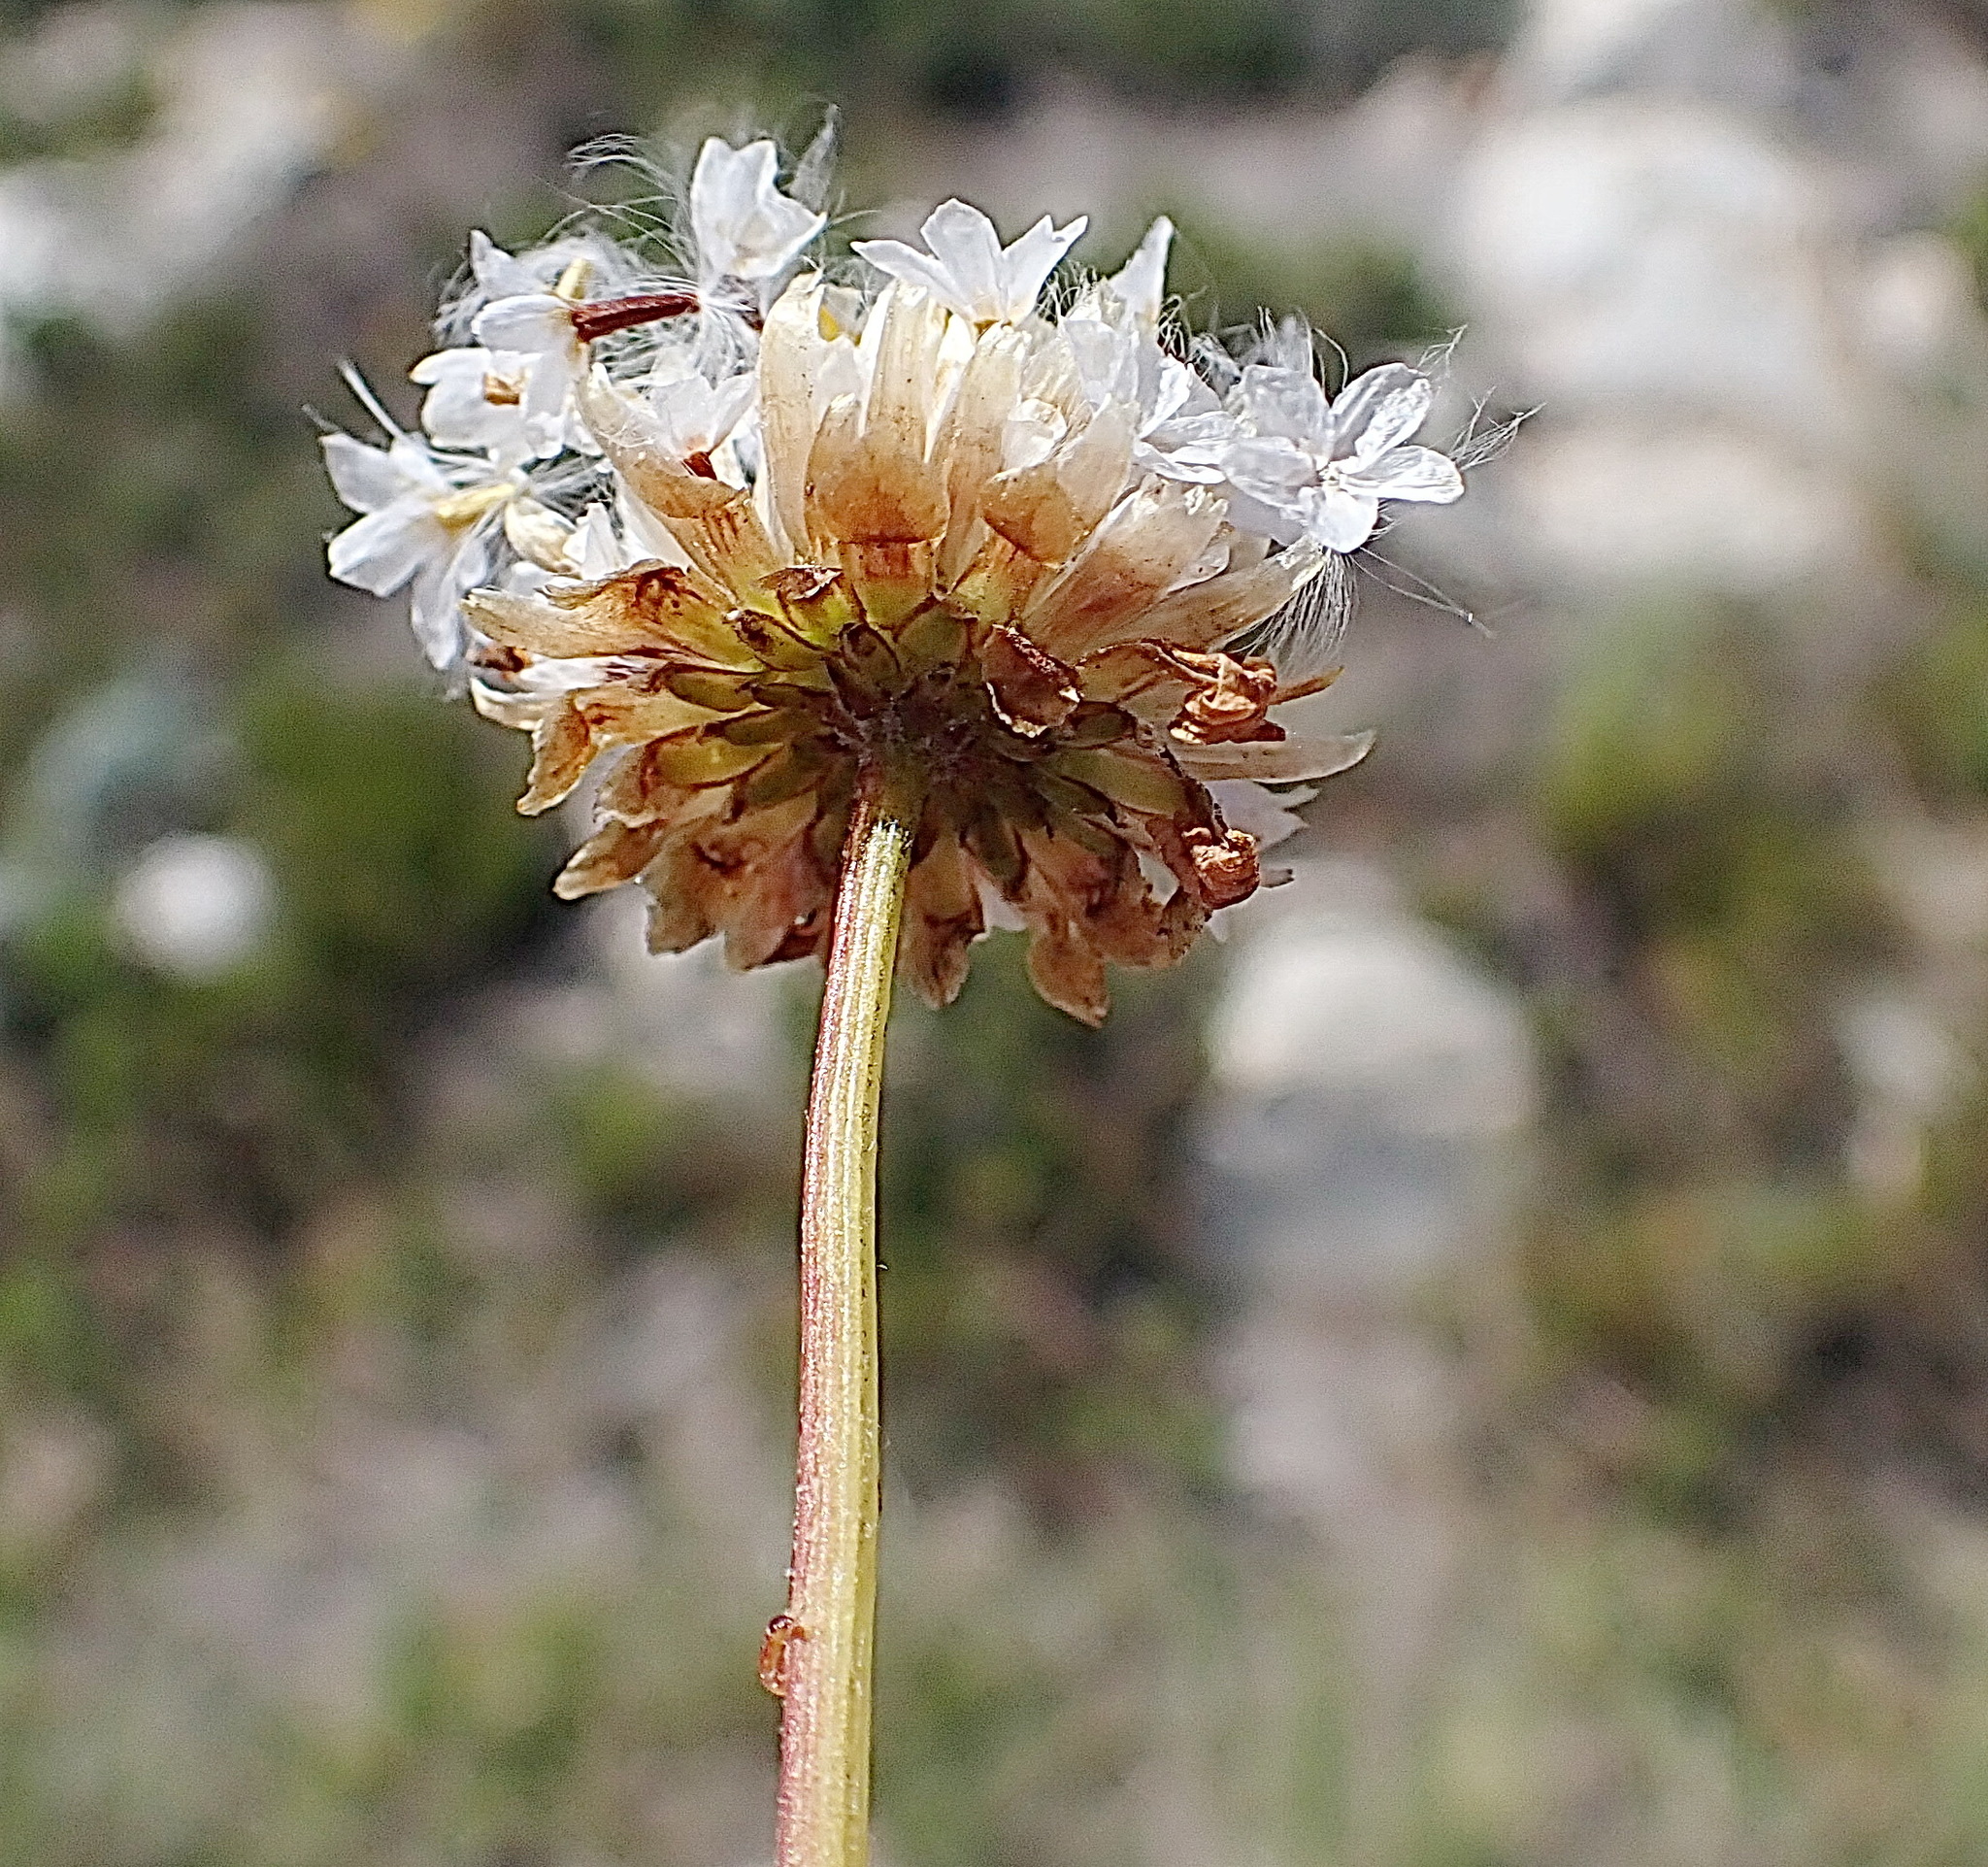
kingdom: Plantae
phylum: Tracheophyta
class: Magnoliopsida
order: Asterales
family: Asteraceae
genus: Ursinia
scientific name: Ursinia anethoides
